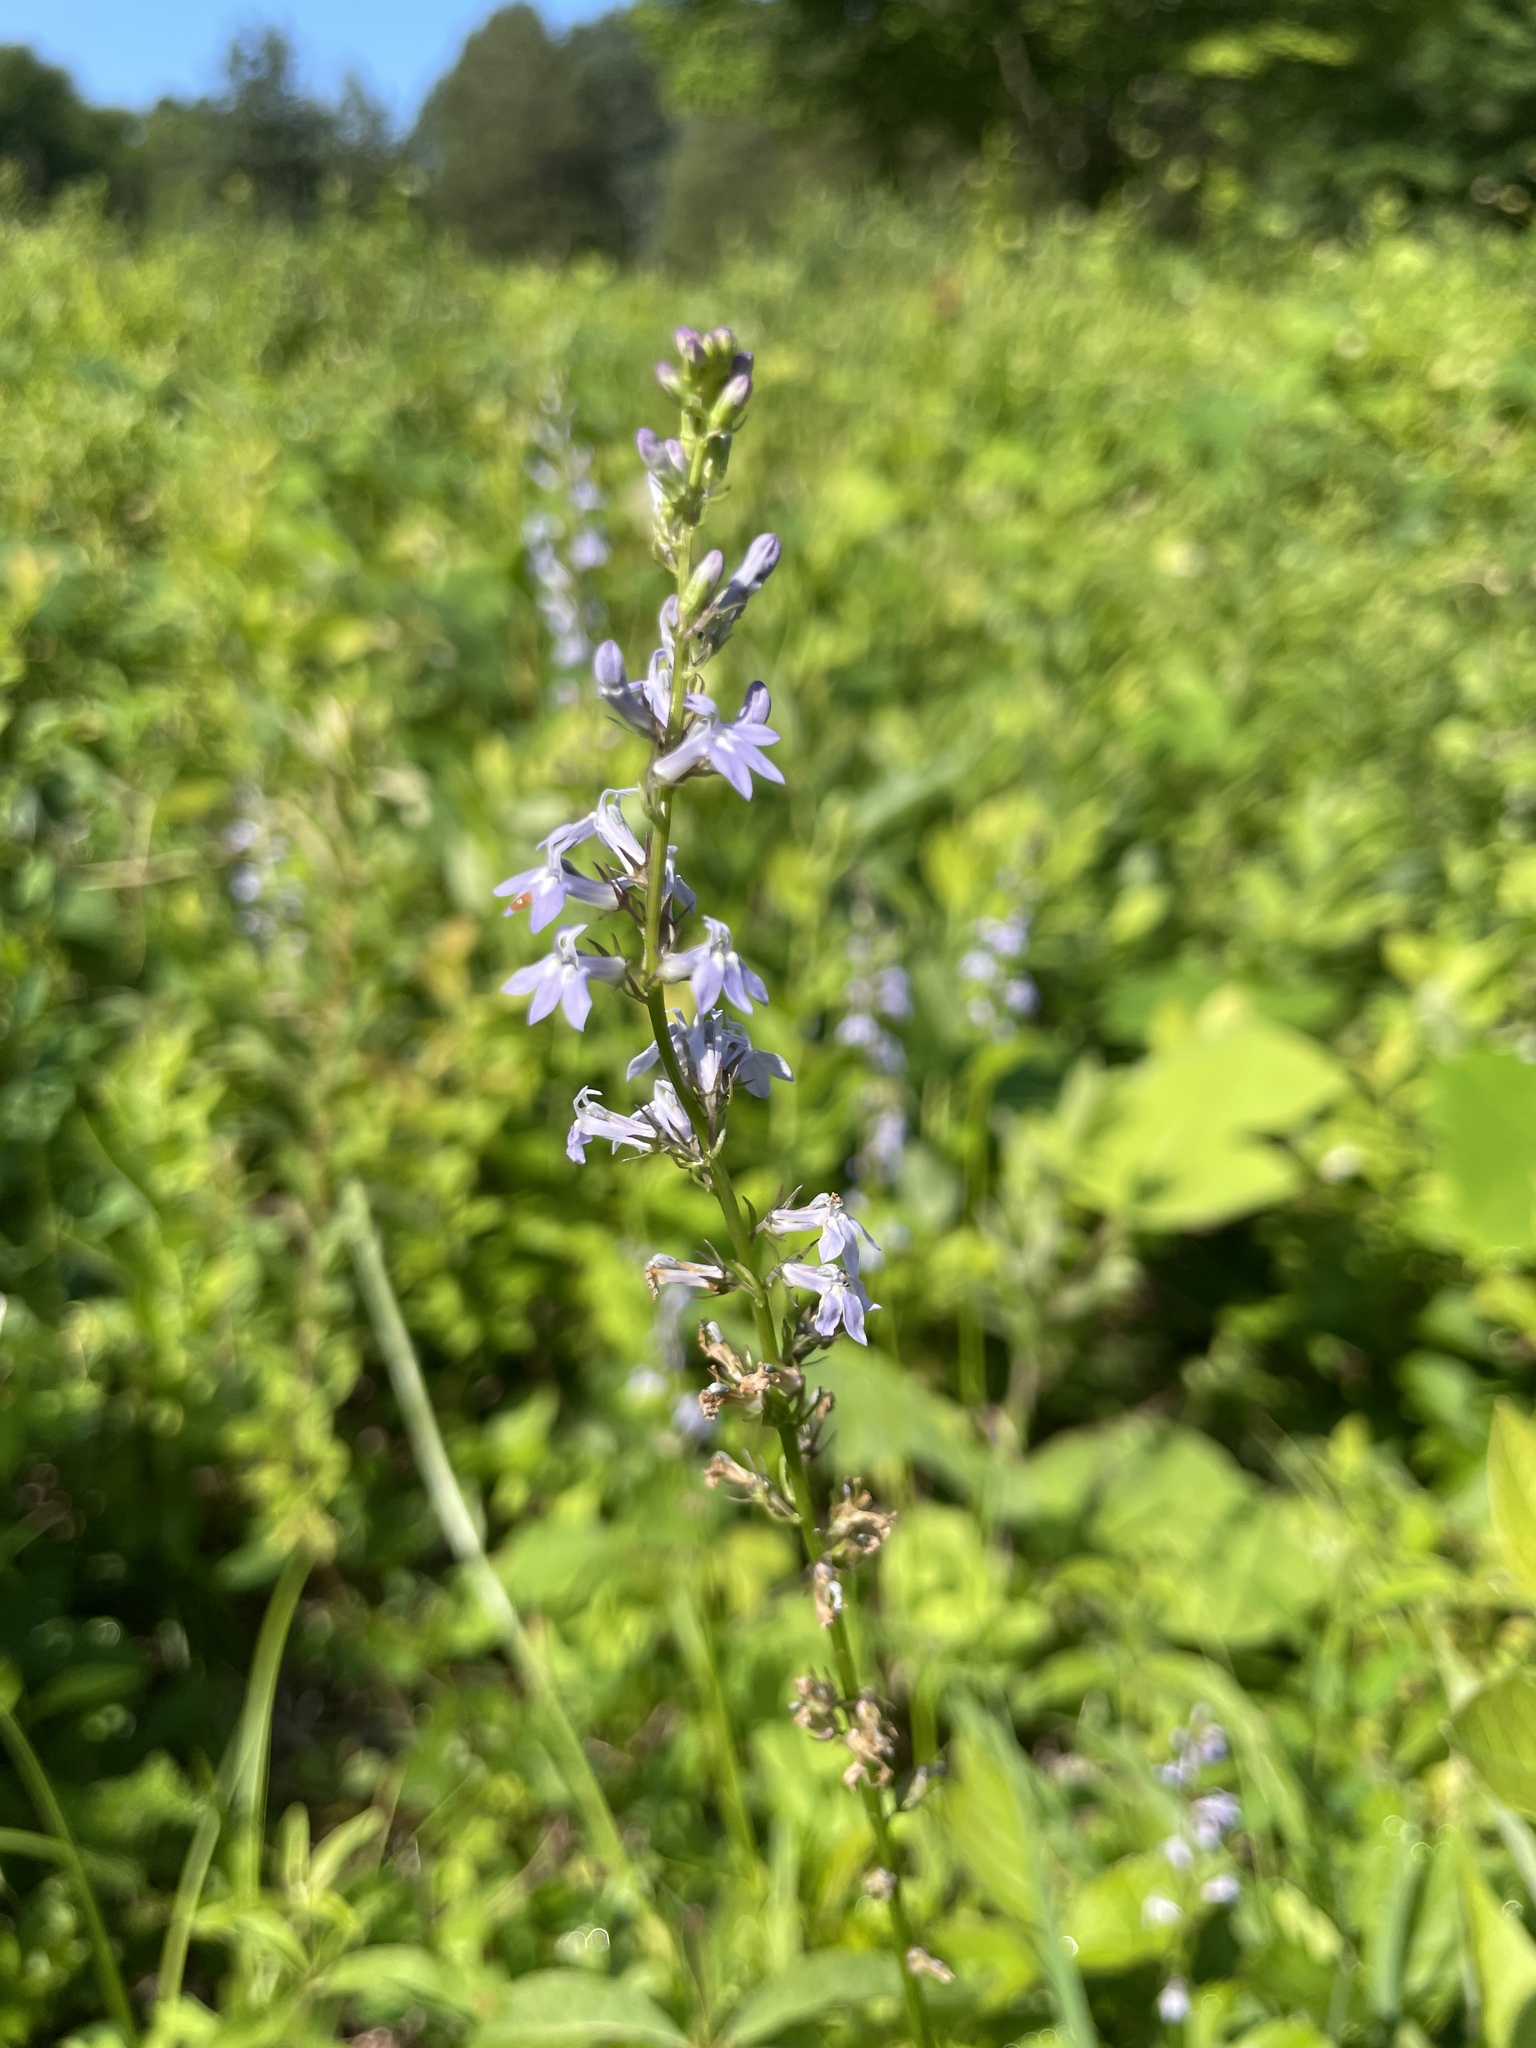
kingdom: Plantae
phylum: Tracheophyta
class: Magnoliopsida
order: Asterales
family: Campanulaceae
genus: Lobelia
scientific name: Lobelia spicata
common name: Pale-spike lobelia
